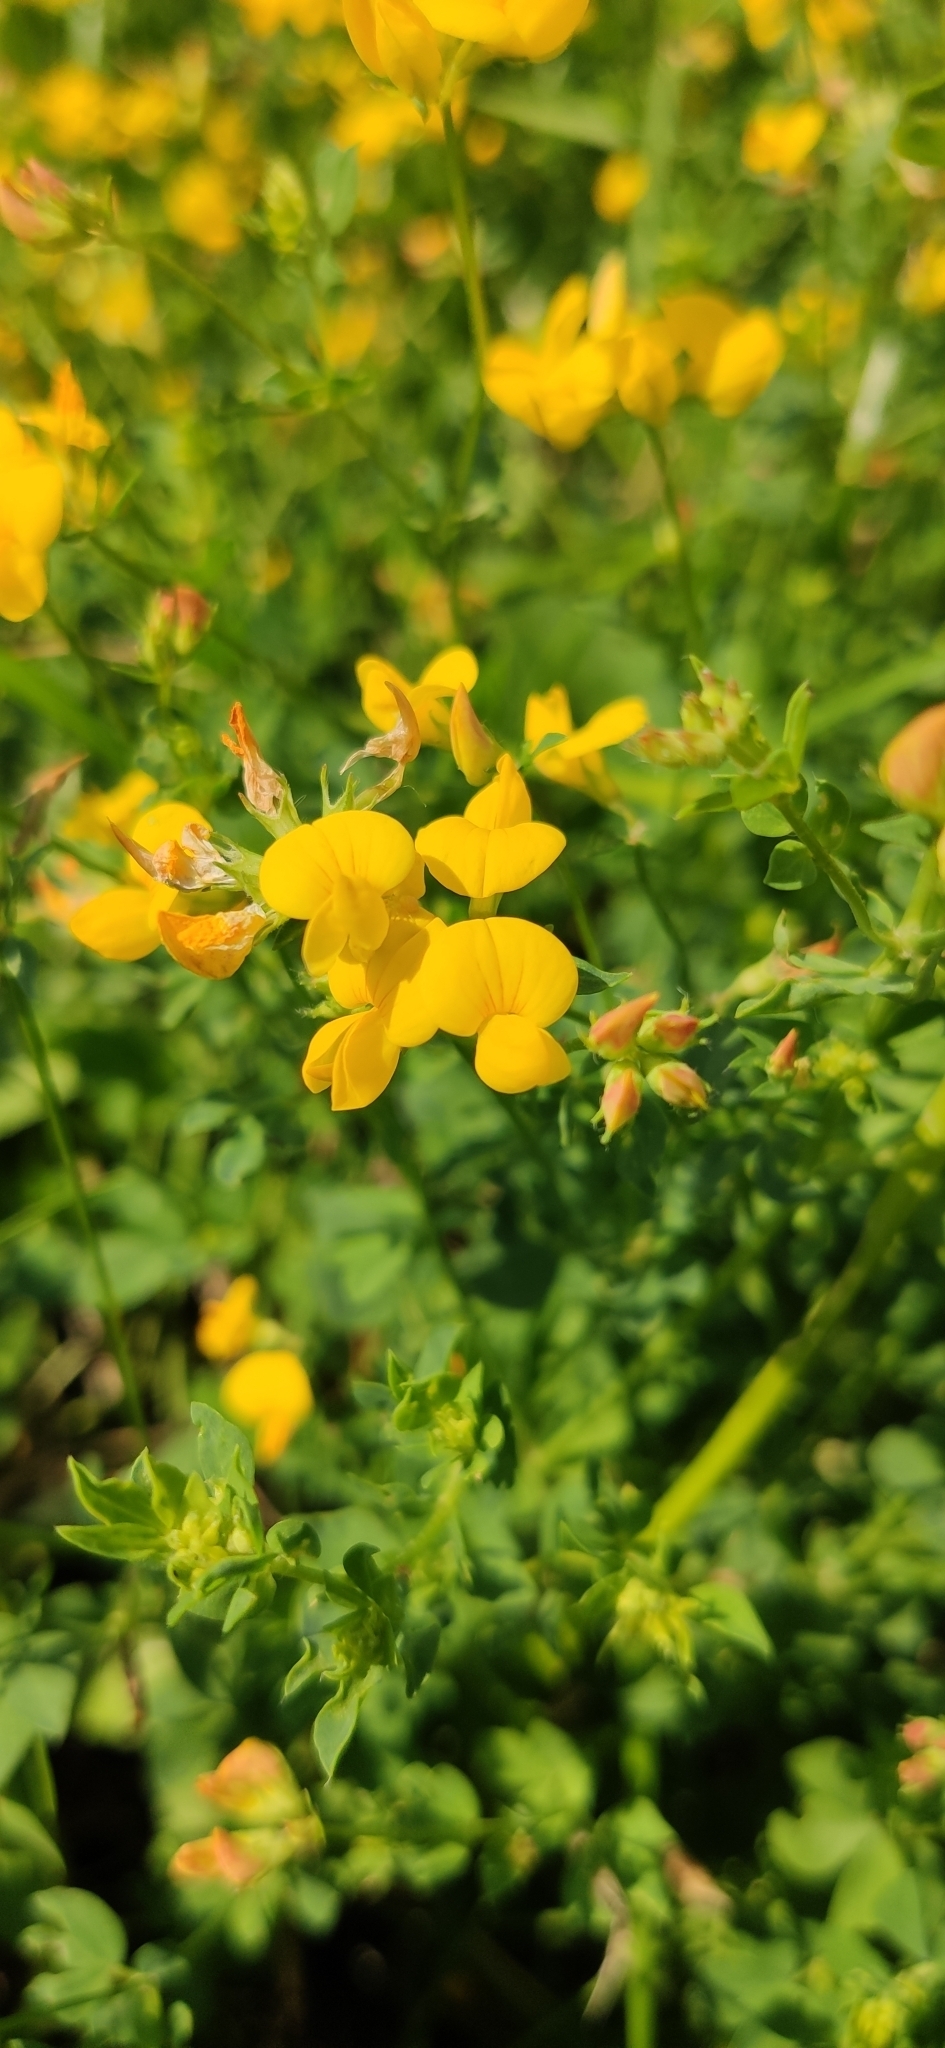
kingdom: Plantae
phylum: Tracheophyta
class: Magnoliopsida
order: Fabales
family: Fabaceae
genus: Lotus
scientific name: Lotus corniculatus
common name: Common bird's-foot-trefoil
